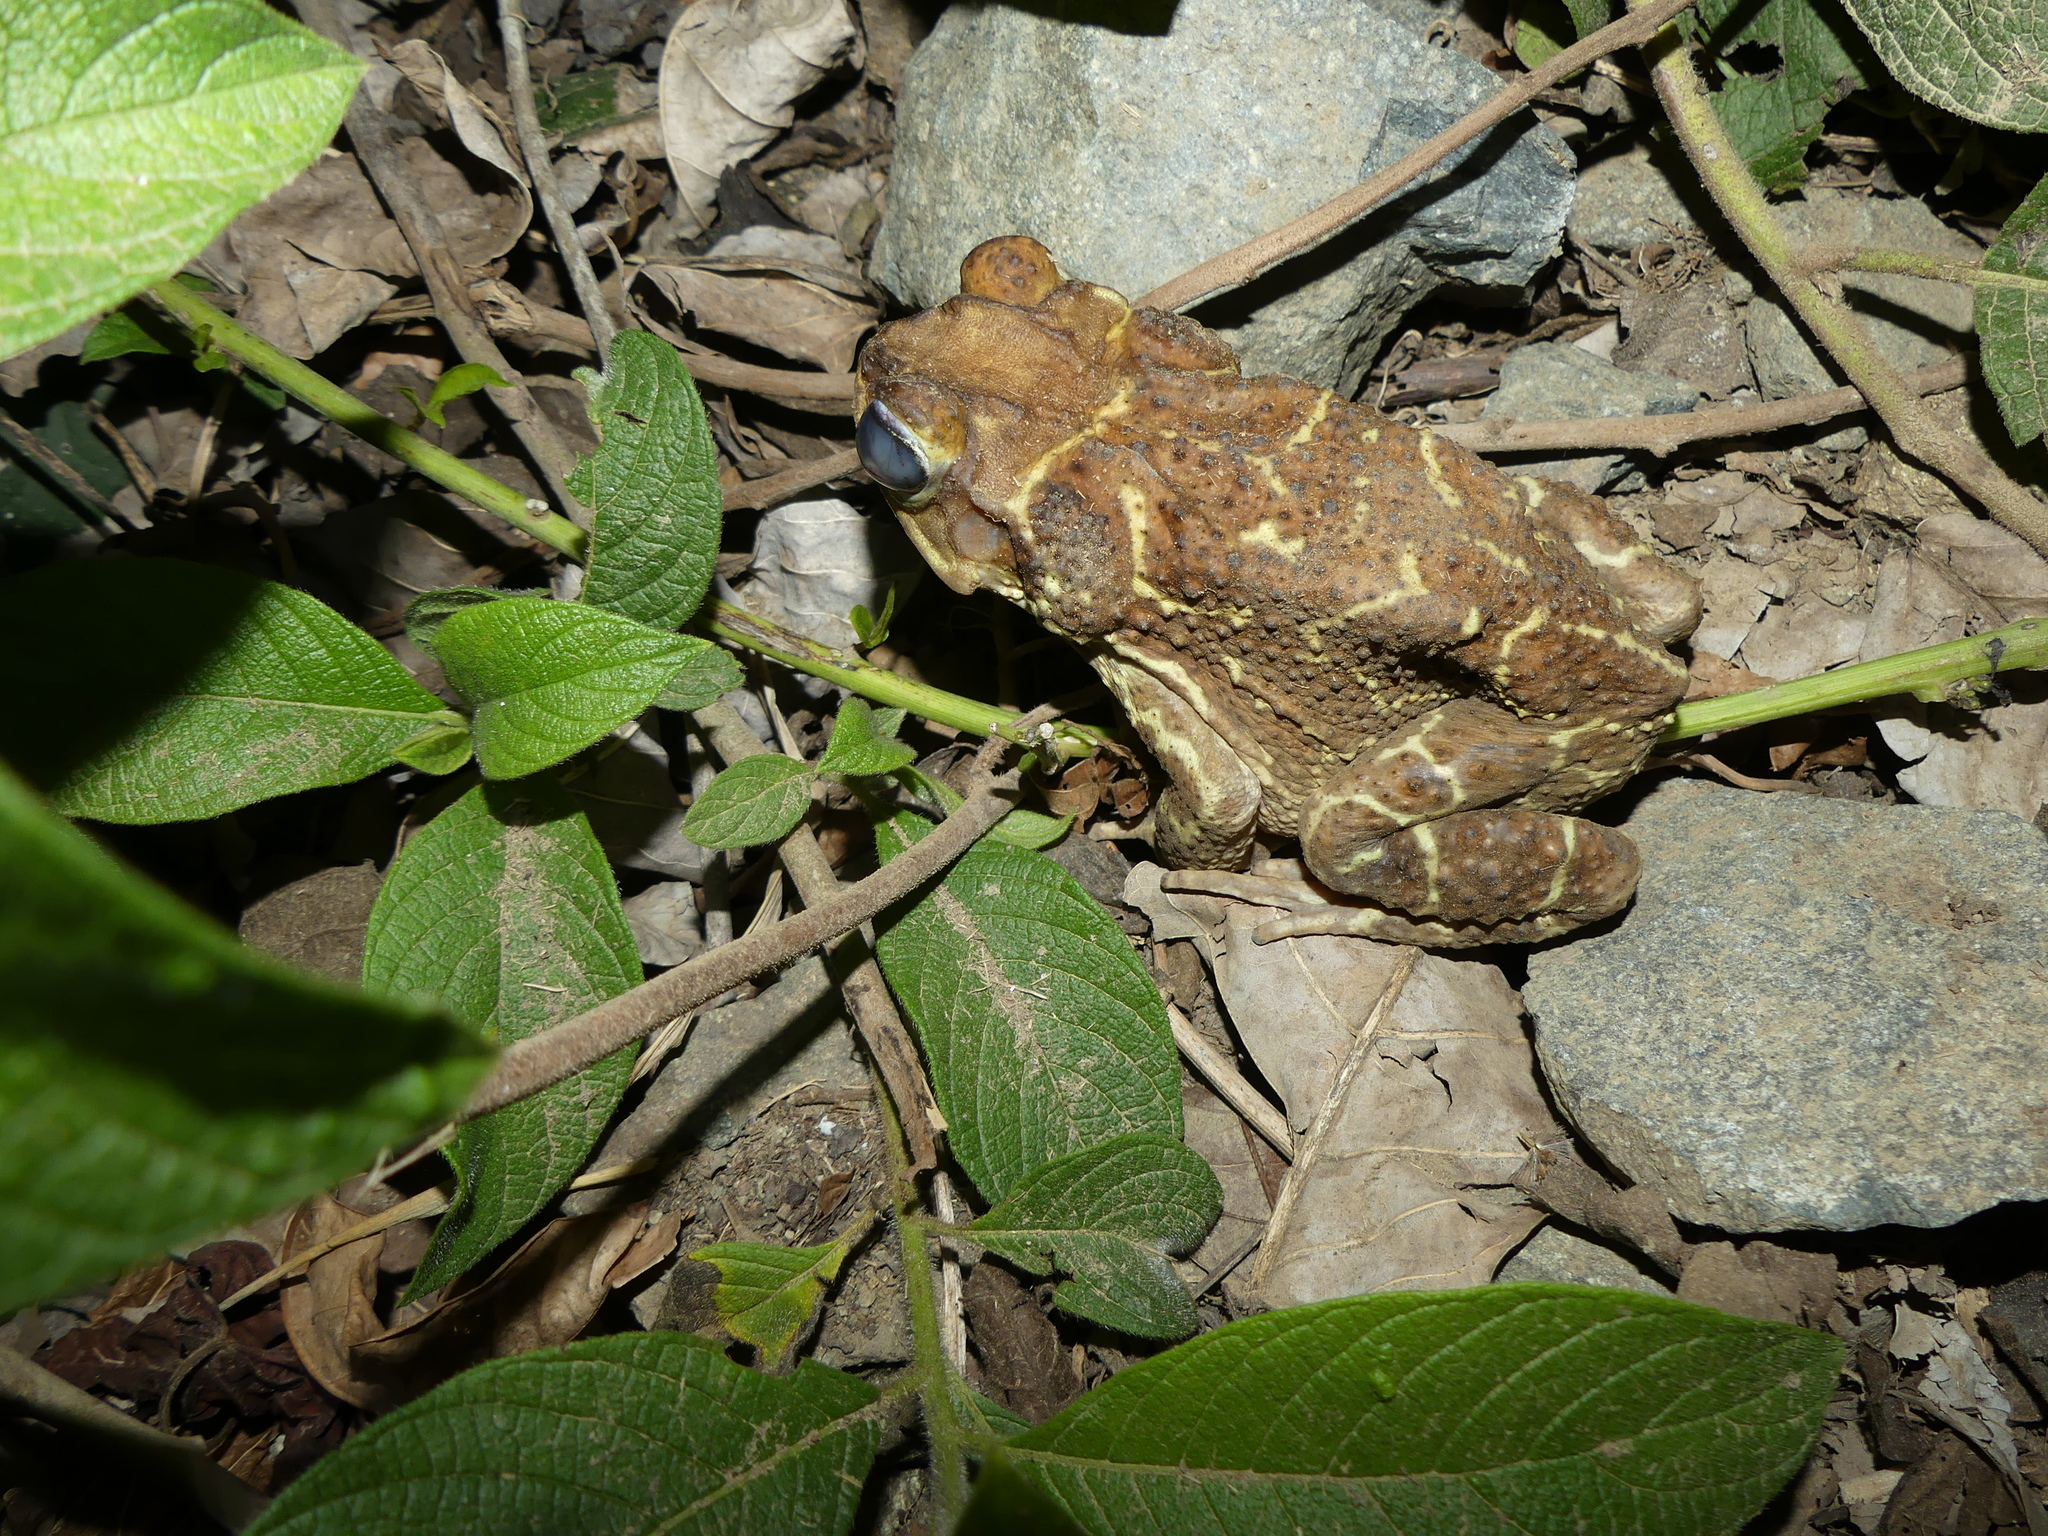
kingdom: Animalia
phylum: Chordata
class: Amphibia
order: Anura
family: Bufonidae
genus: Peltophryne
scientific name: Peltophryne peltocephala
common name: Eastern cuba giant toad
